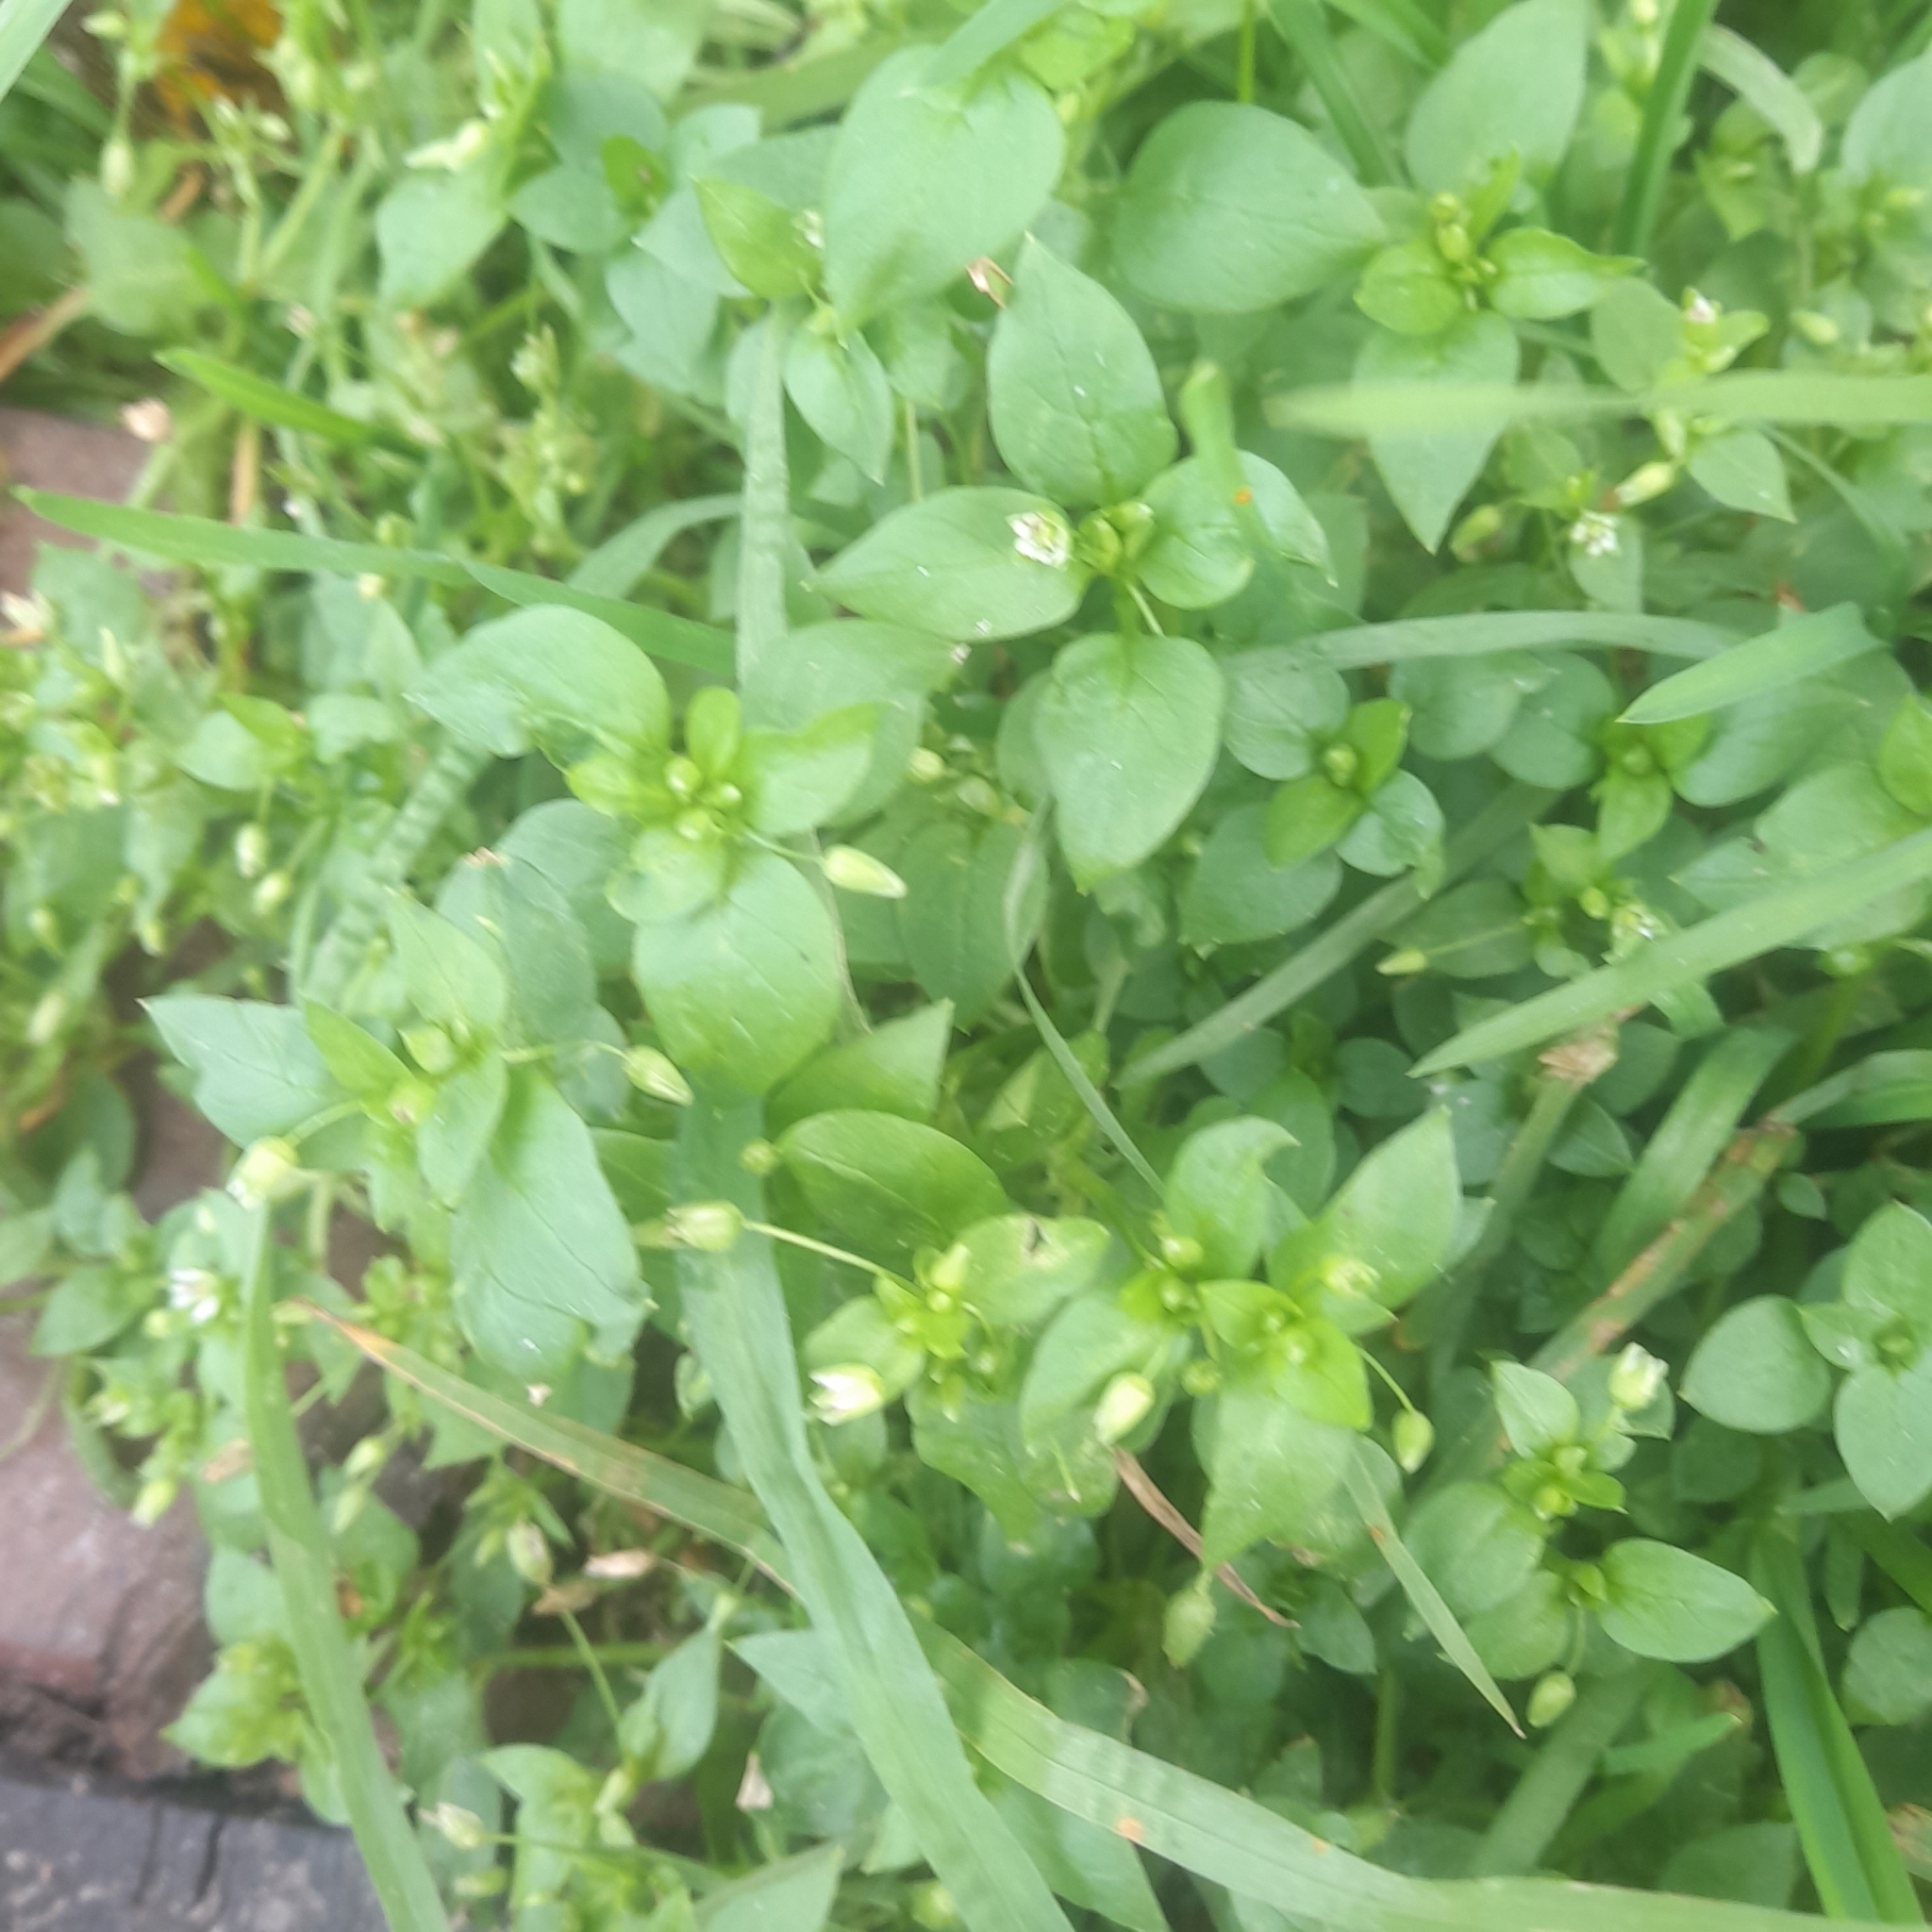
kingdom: Plantae
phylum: Tracheophyta
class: Magnoliopsida
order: Caryophyllales
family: Caryophyllaceae
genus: Stellaria
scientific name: Stellaria media
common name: Common chickweed
